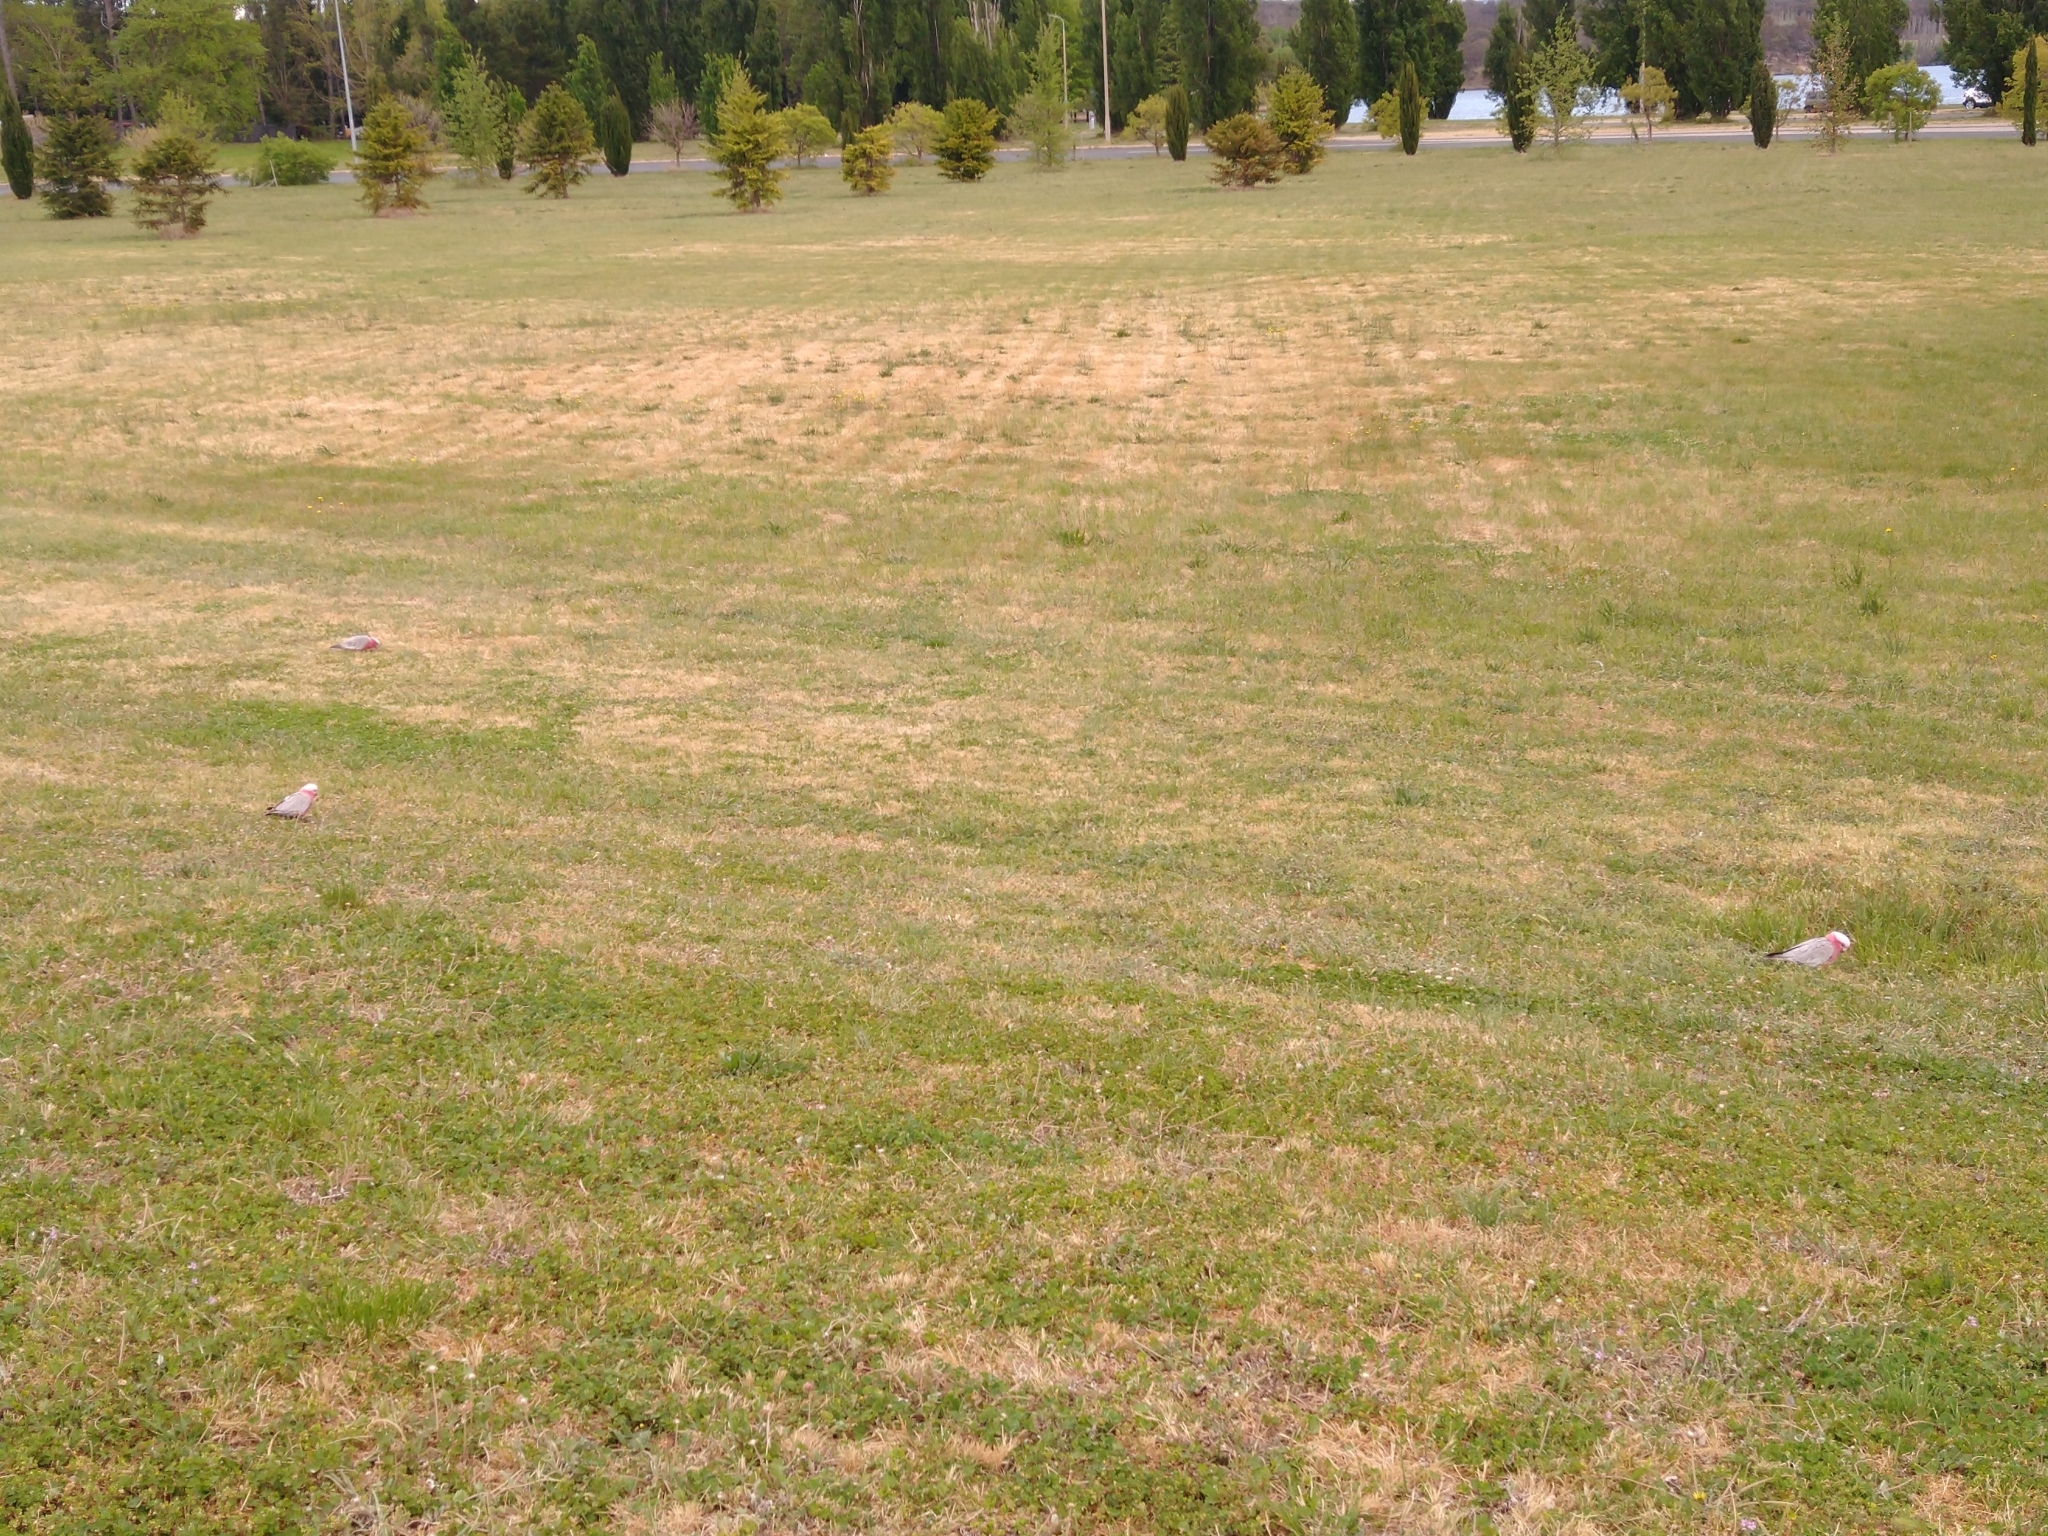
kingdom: Animalia
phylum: Chordata
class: Aves
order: Psittaciformes
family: Psittacidae
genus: Eolophus
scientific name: Eolophus roseicapilla
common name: Galah
